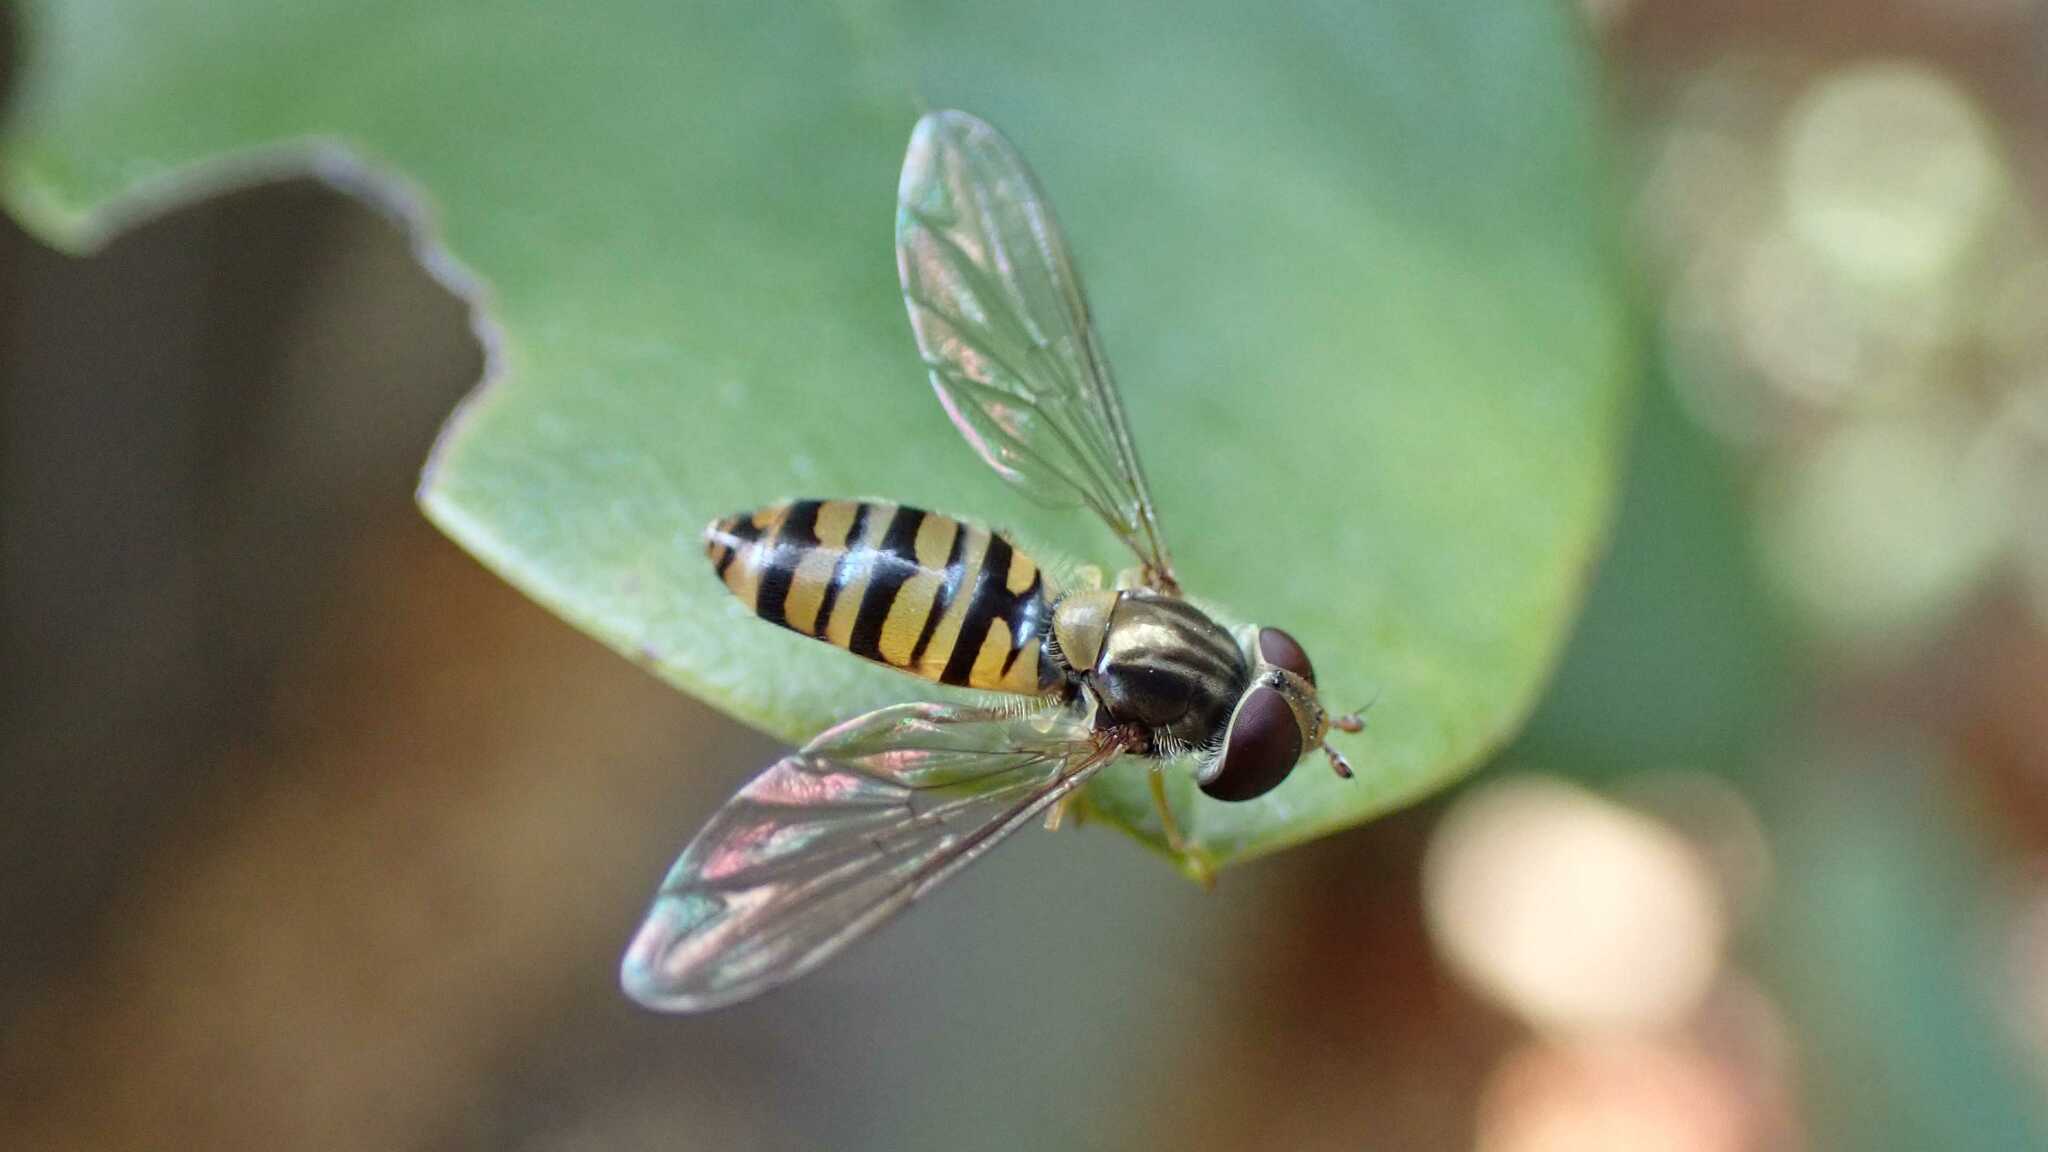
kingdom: Animalia
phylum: Arthropoda
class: Insecta
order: Diptera
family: Syrphidae
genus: Episyrphus
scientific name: Episyrphus balteatus
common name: Marmalade hoverfly
